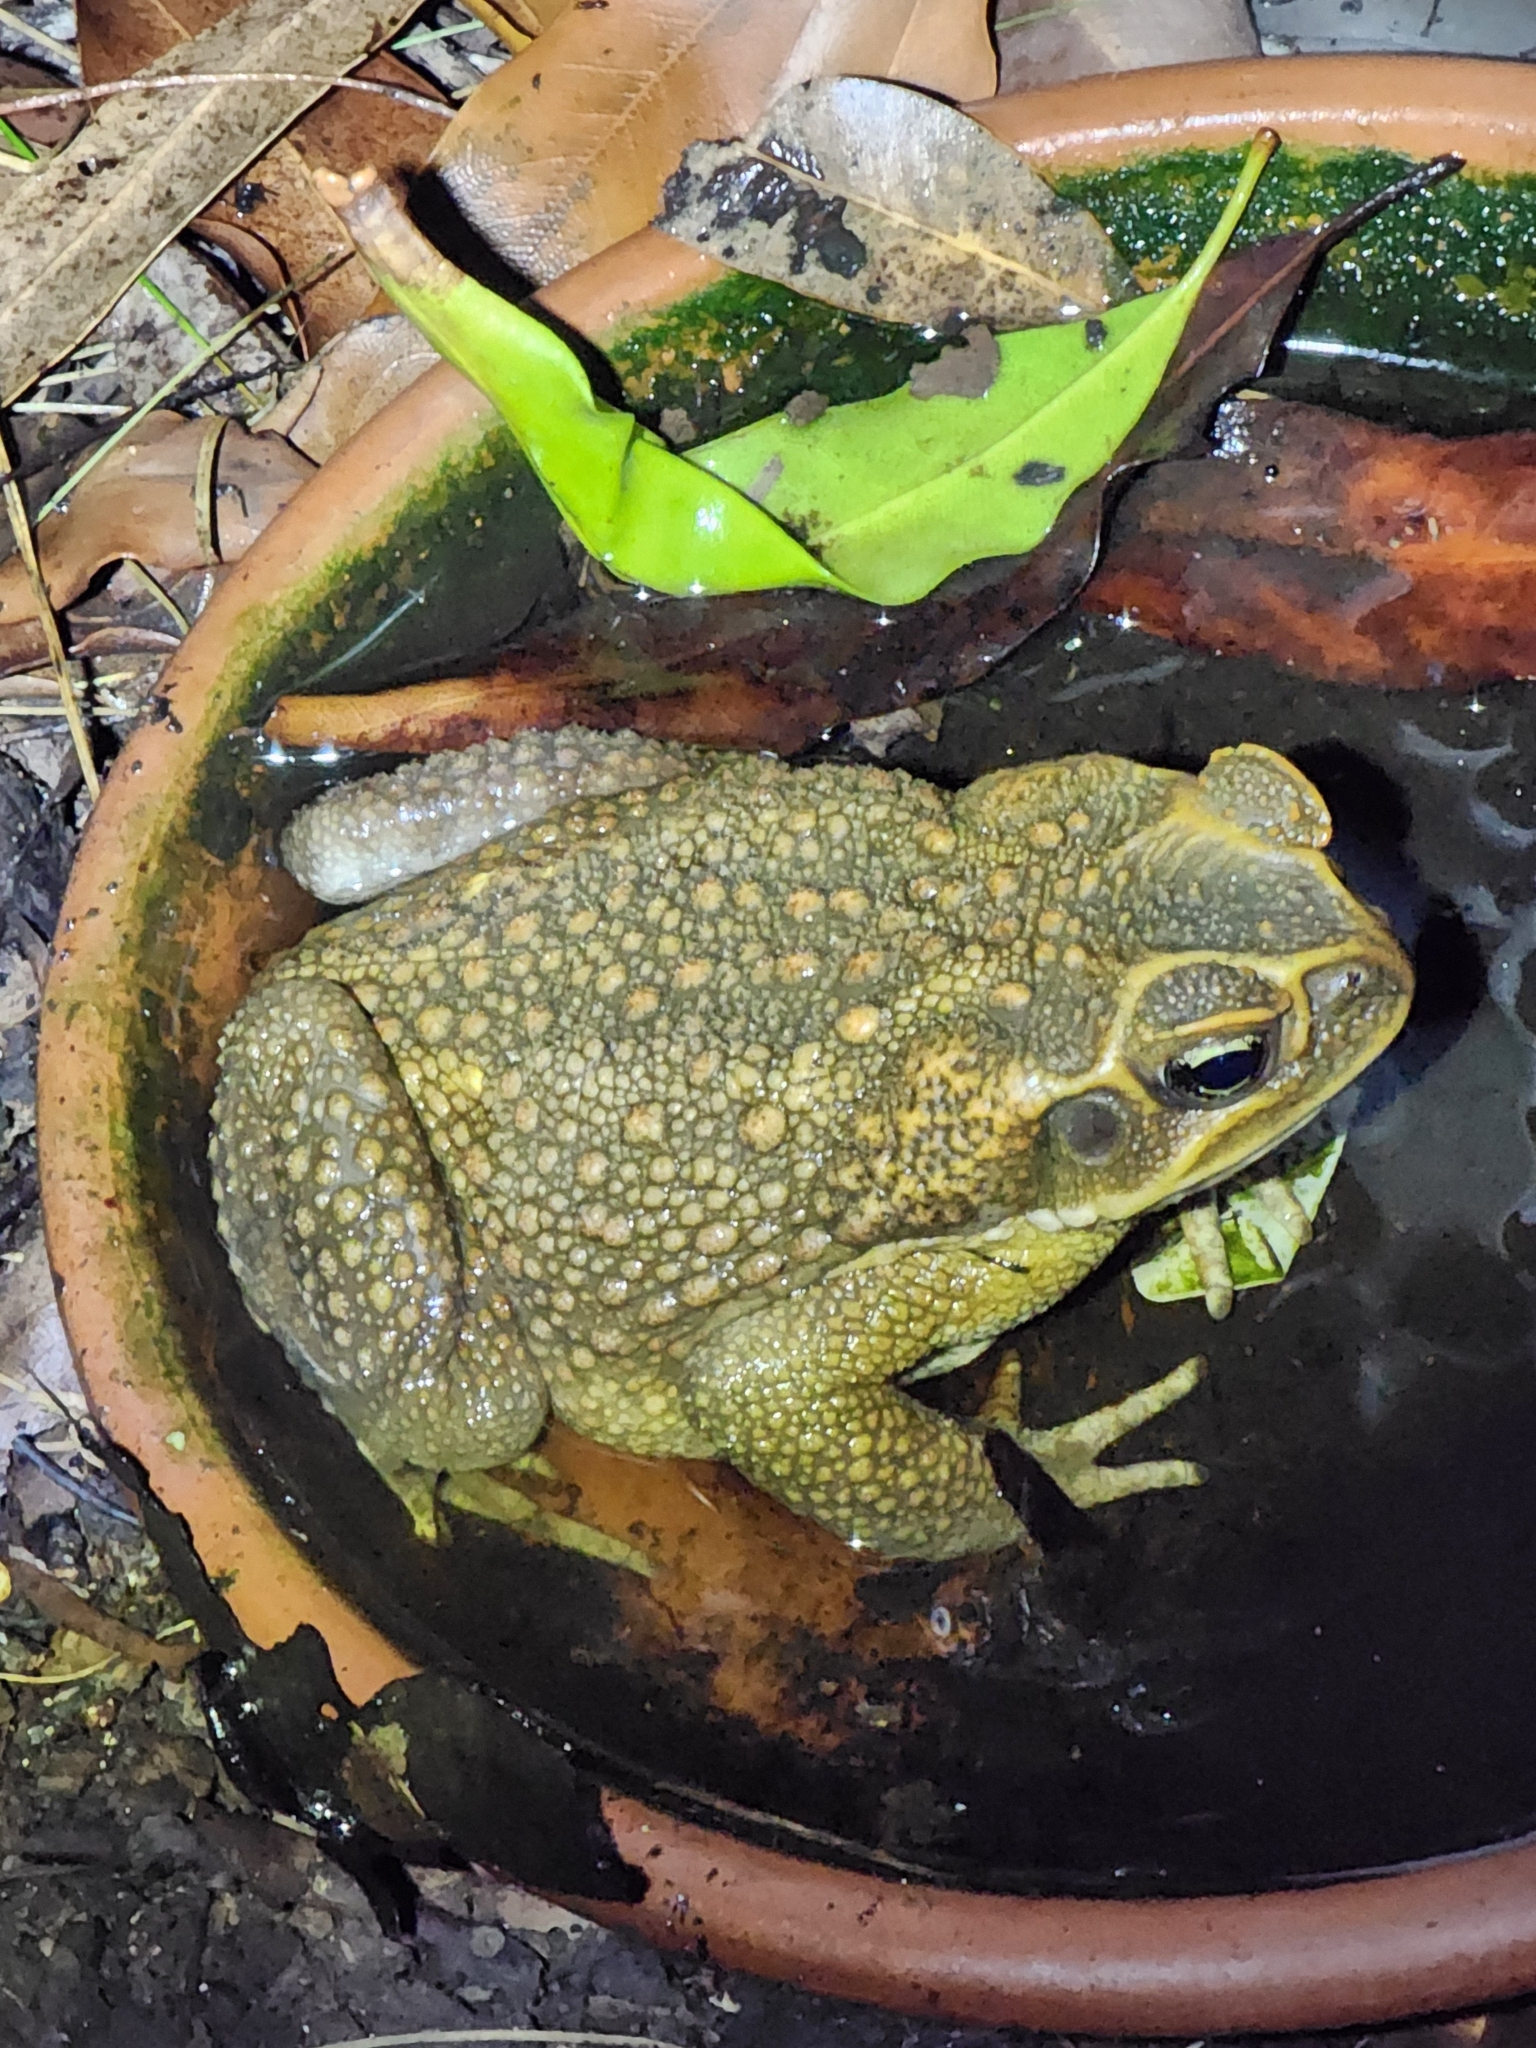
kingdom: Animalia
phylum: Chordata
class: Amphibia
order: Anura
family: Bufonidae
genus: Rhinella
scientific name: Rhinella marina
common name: Cane toad
